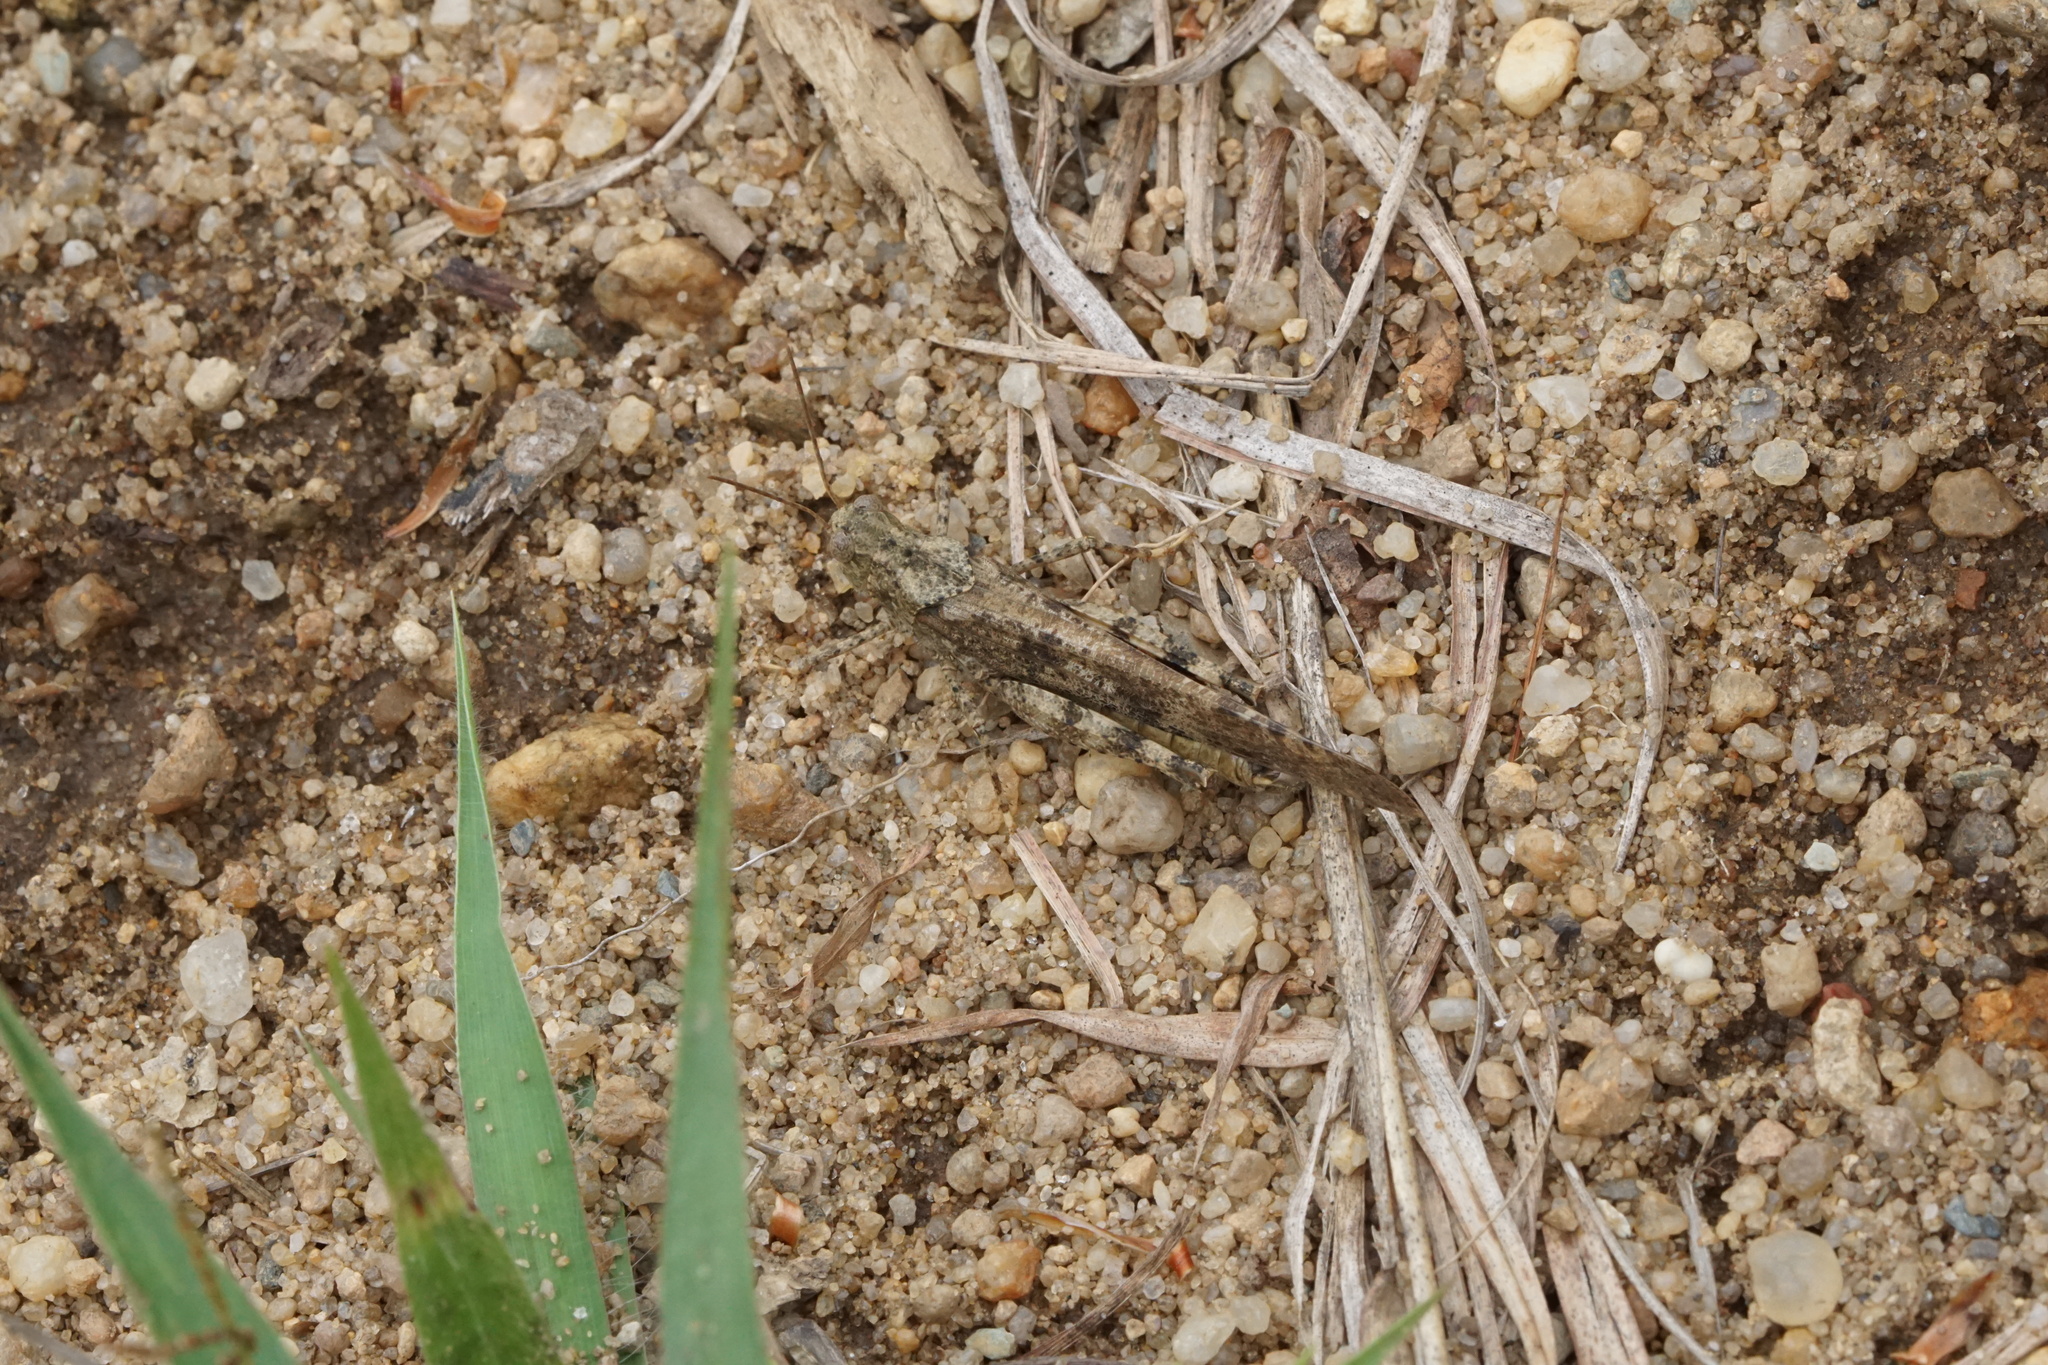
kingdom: Animalia
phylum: Arthropoda
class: Insecta
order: Orthoptera
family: Acrididae
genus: Dissosteira
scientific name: Dissosteira carolina
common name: Carolina grasshopper
